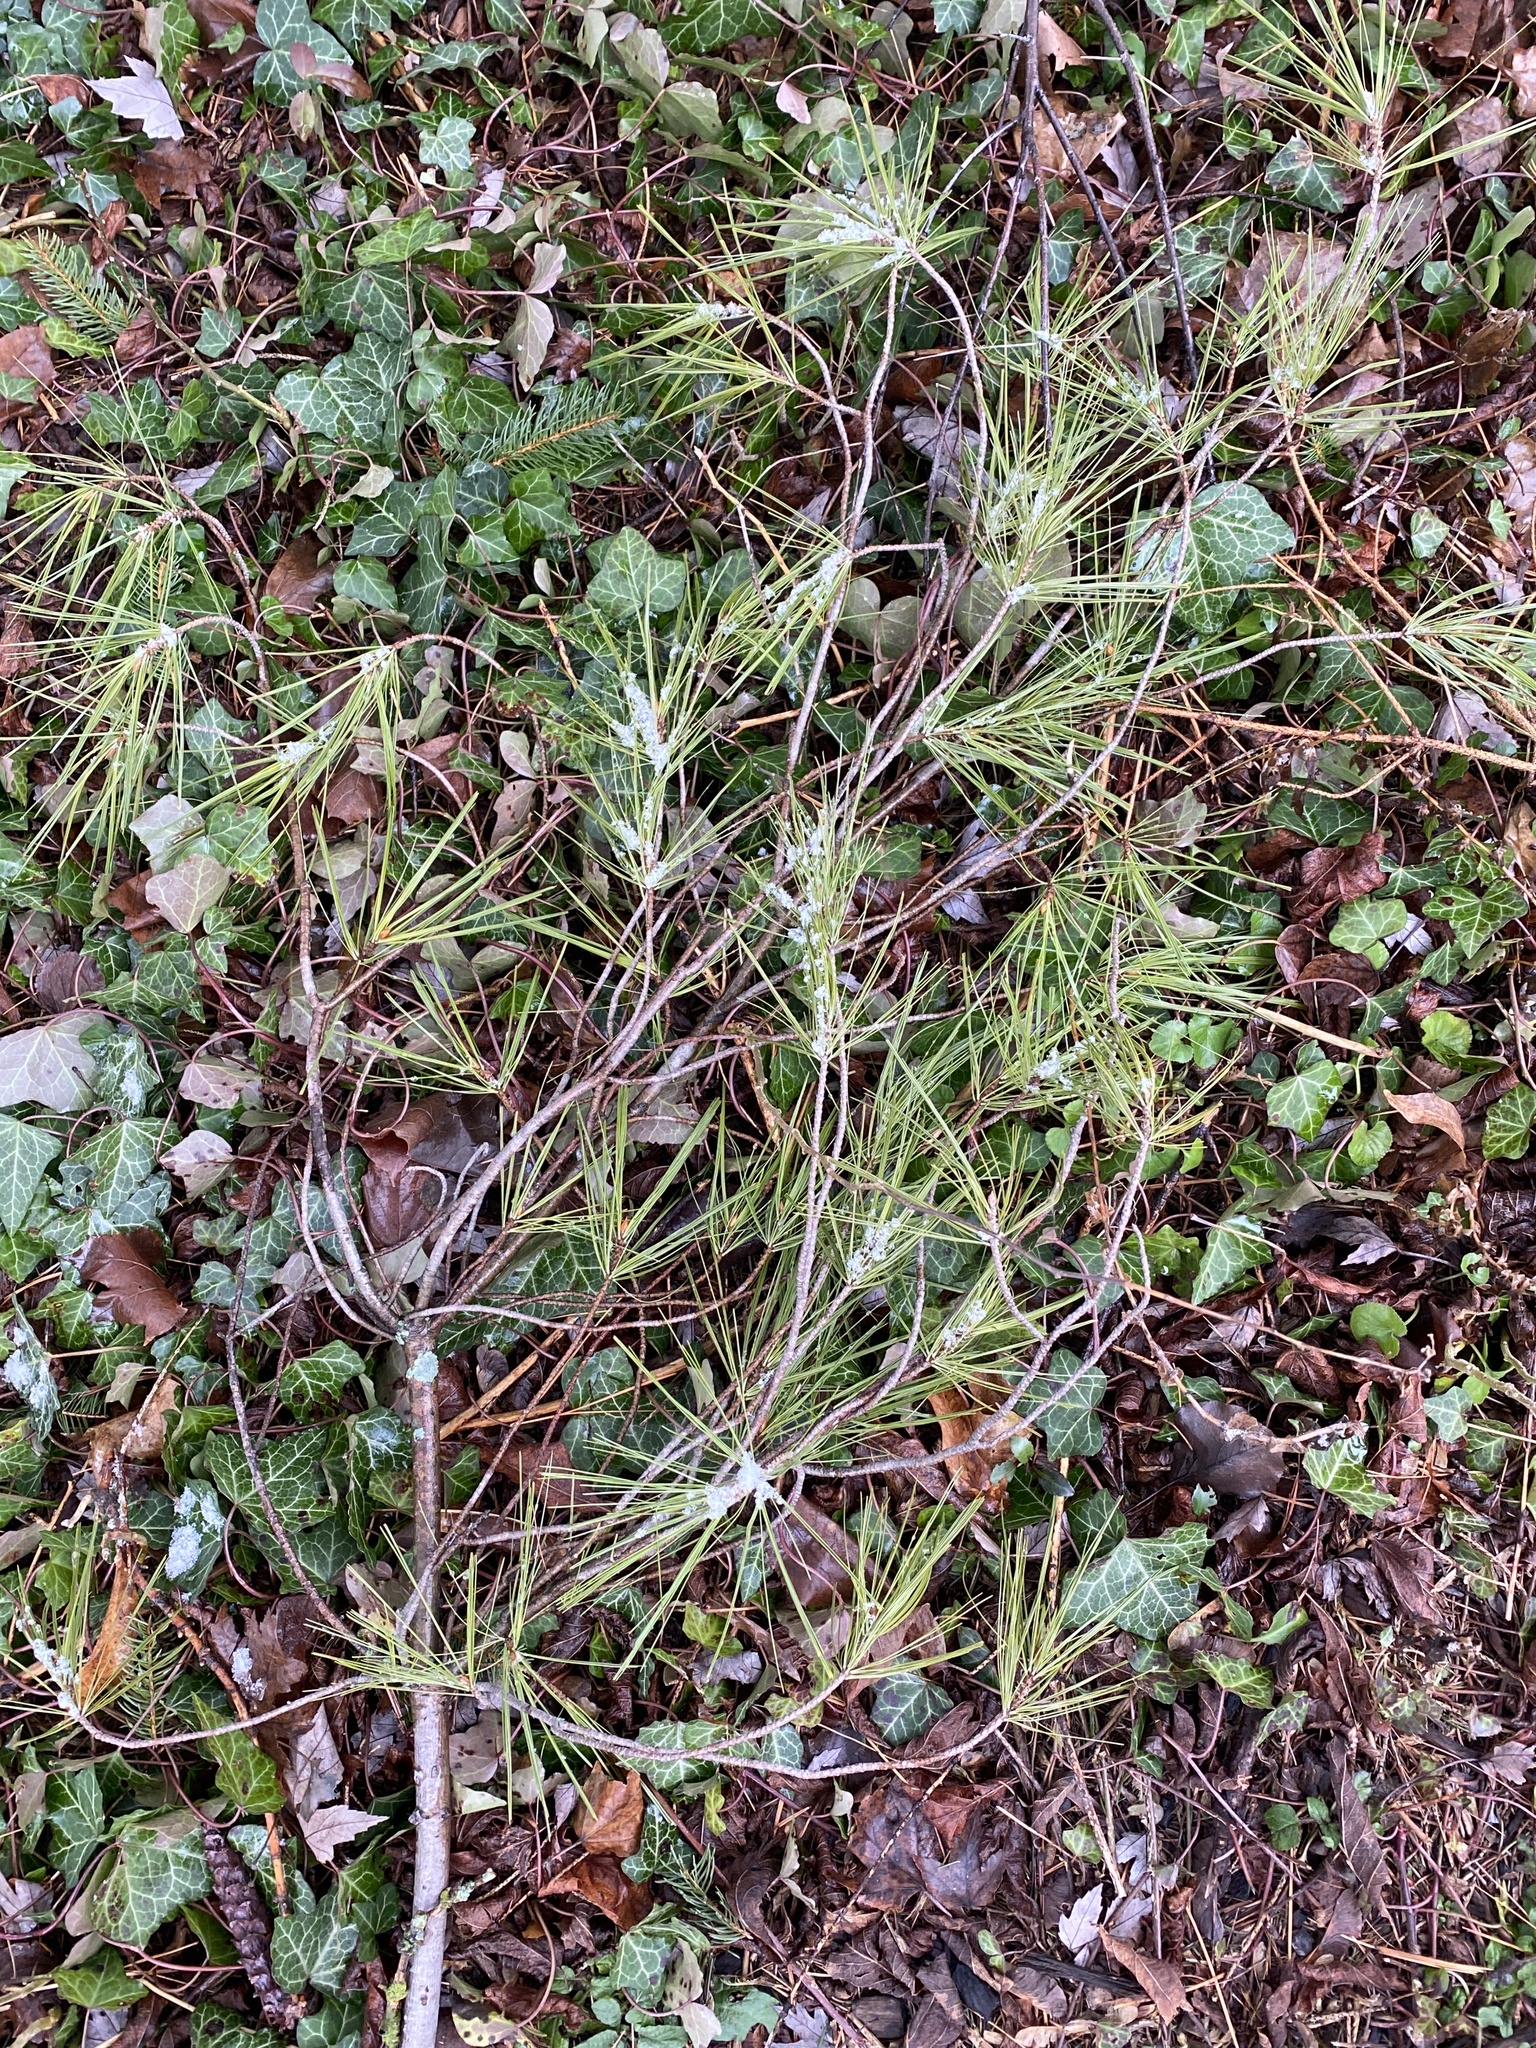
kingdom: Plantae
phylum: Tracheophyta
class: Pinopsida
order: Pinales
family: Pinaceae
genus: Pinus
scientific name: Pinus strobus
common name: Weymouth pine
